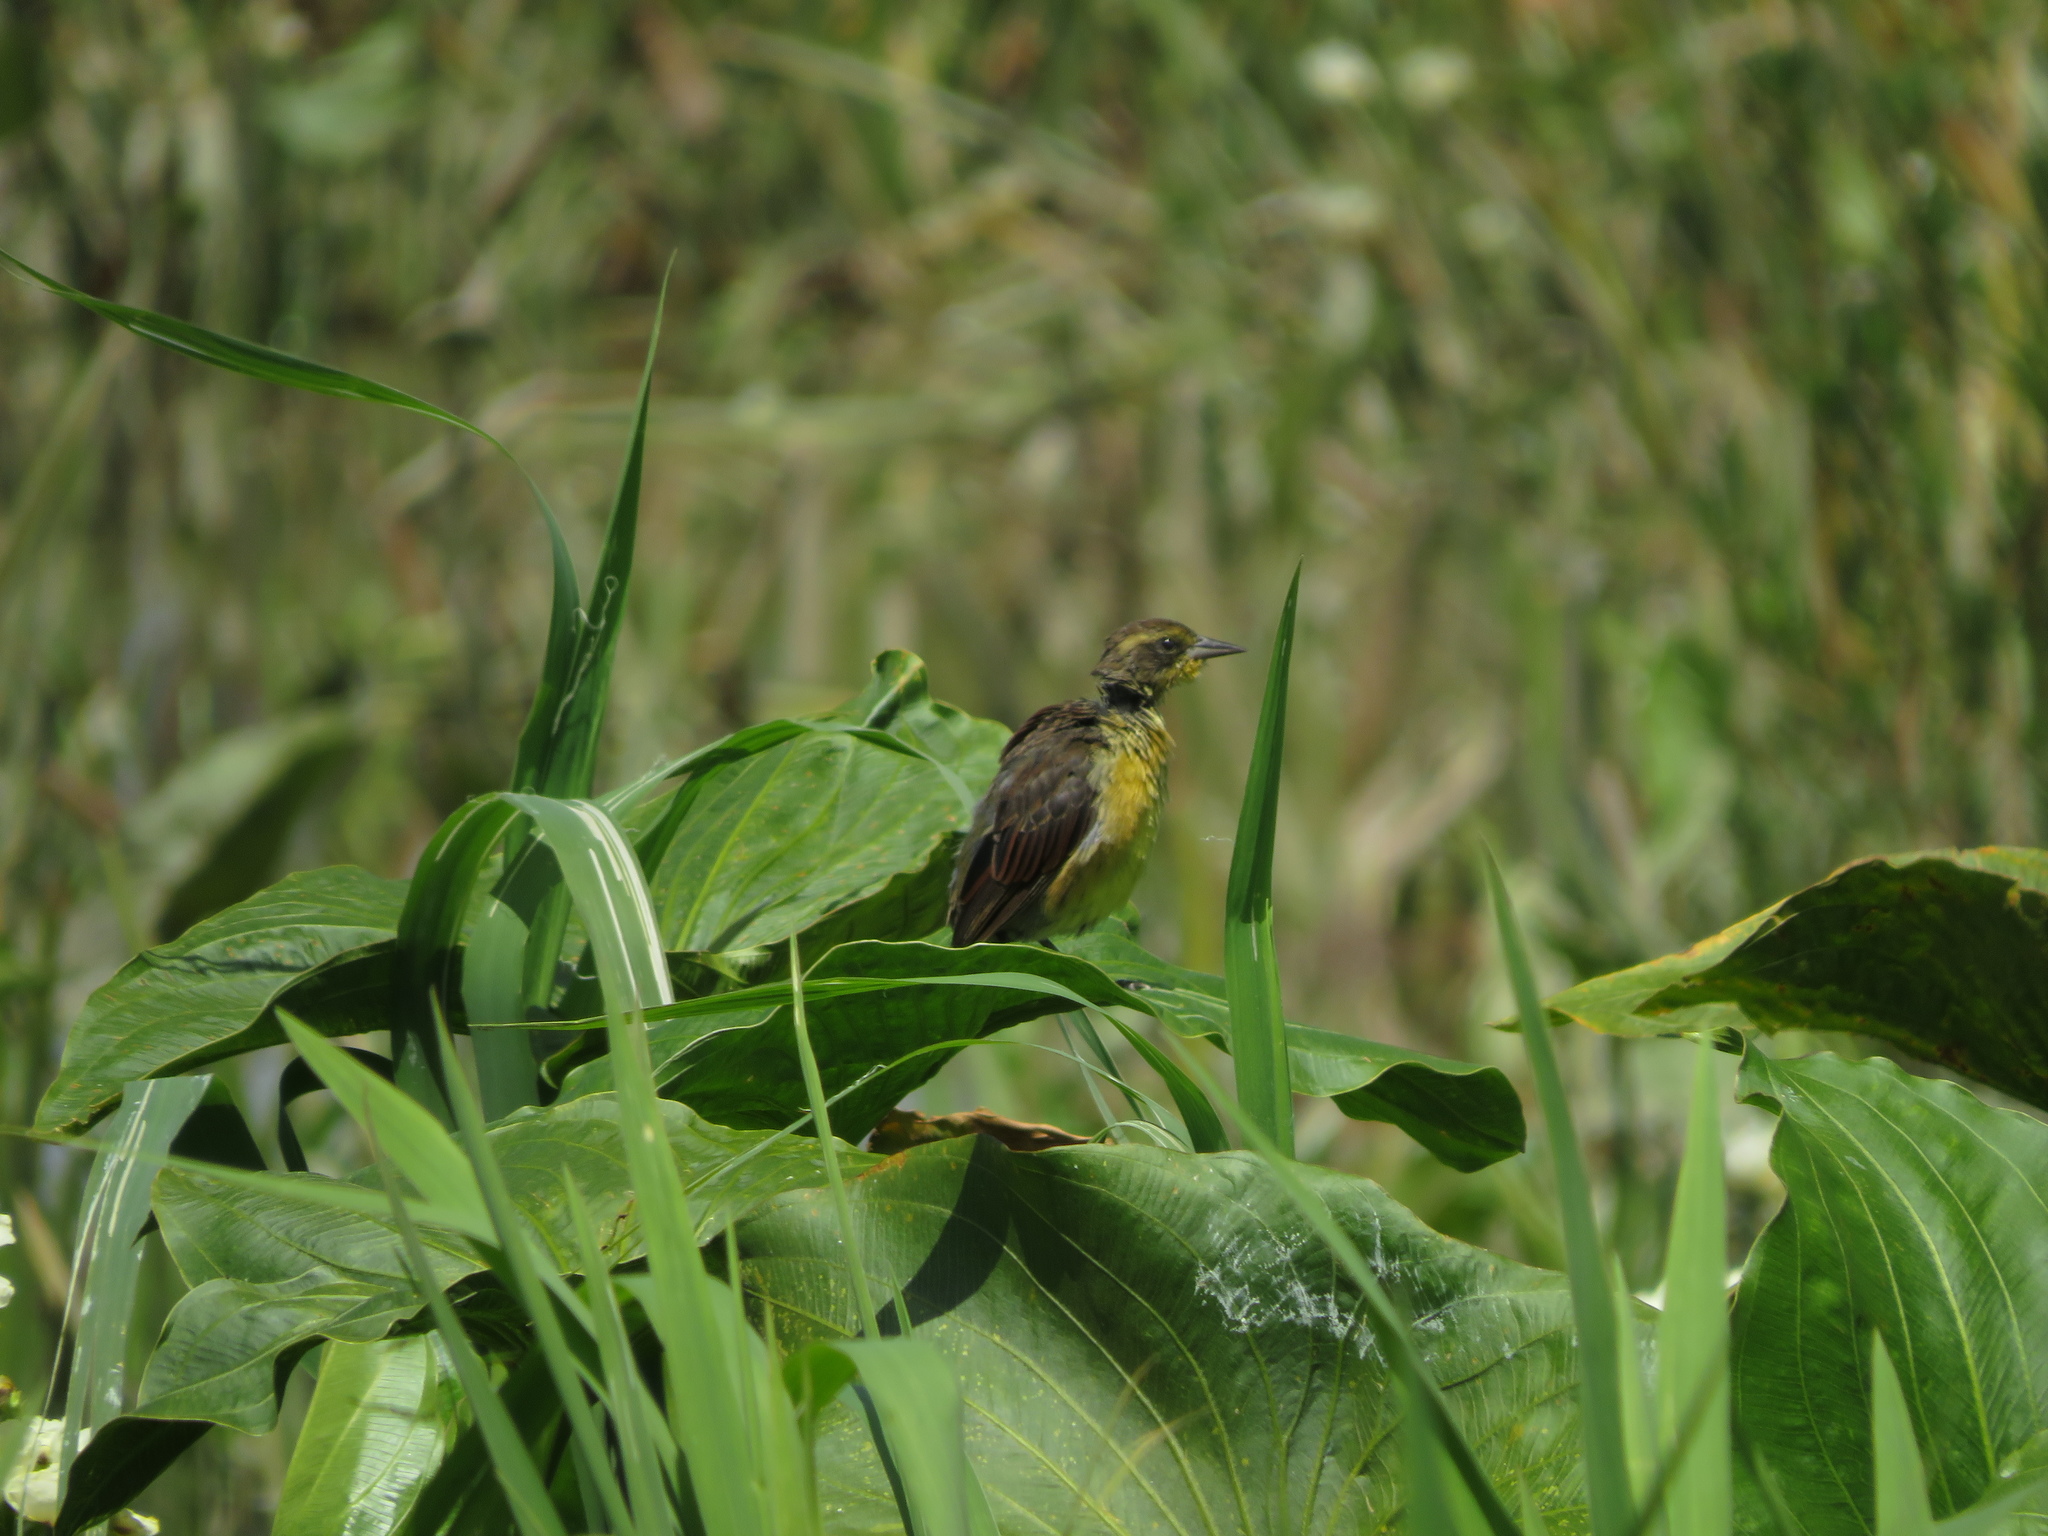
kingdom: Animalia
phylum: Chordata
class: Aves
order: Passeriformes
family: Icteridae
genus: Agelasticus
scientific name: Agelasticus cyanopus
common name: Unicolored blackbird
